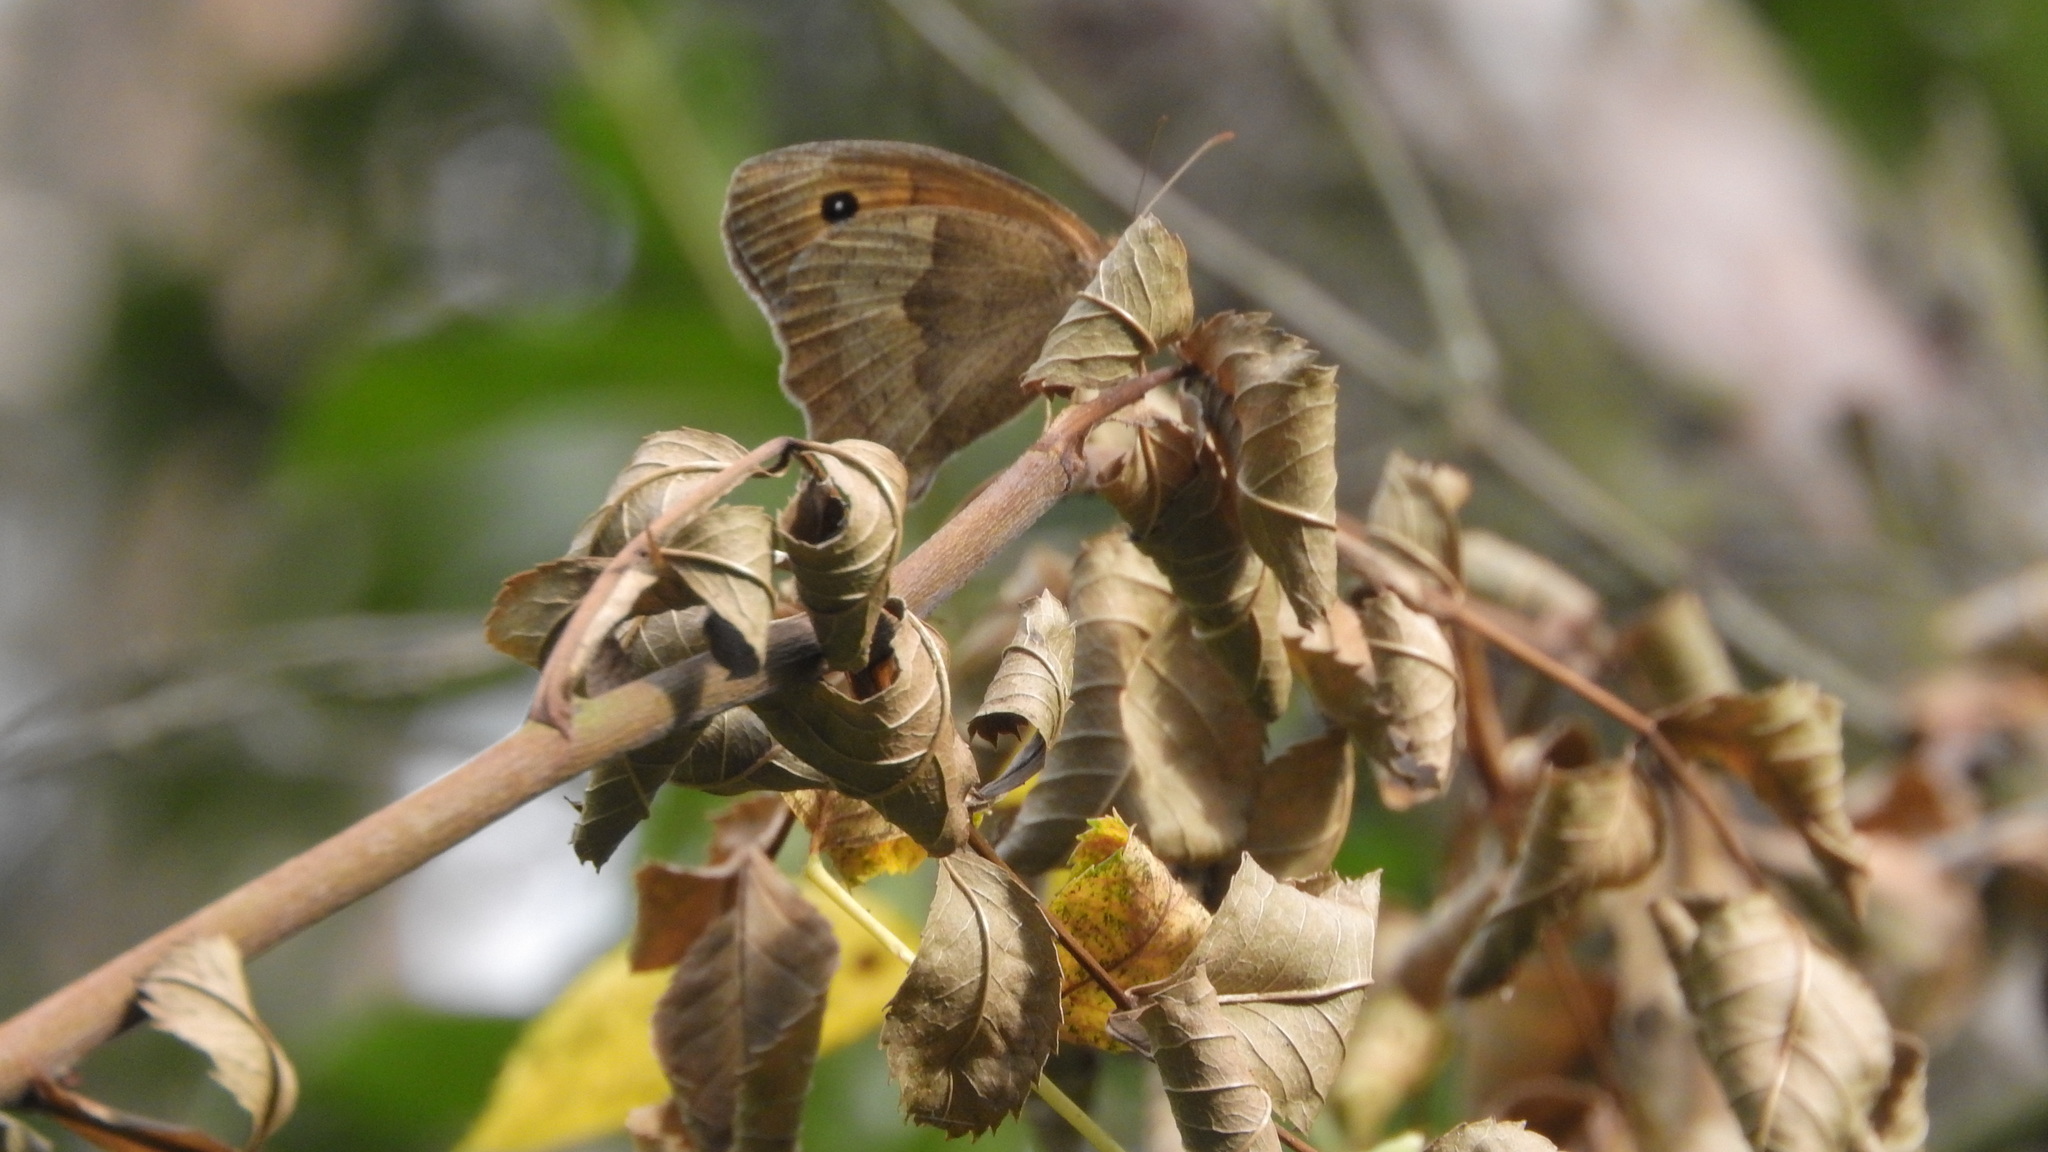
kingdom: Animalia
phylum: Arthropoda
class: Insecta
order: Lepidoptera
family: Nymphalidae
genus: Maniola
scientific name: Maniola jurtina
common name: Meadow brown
